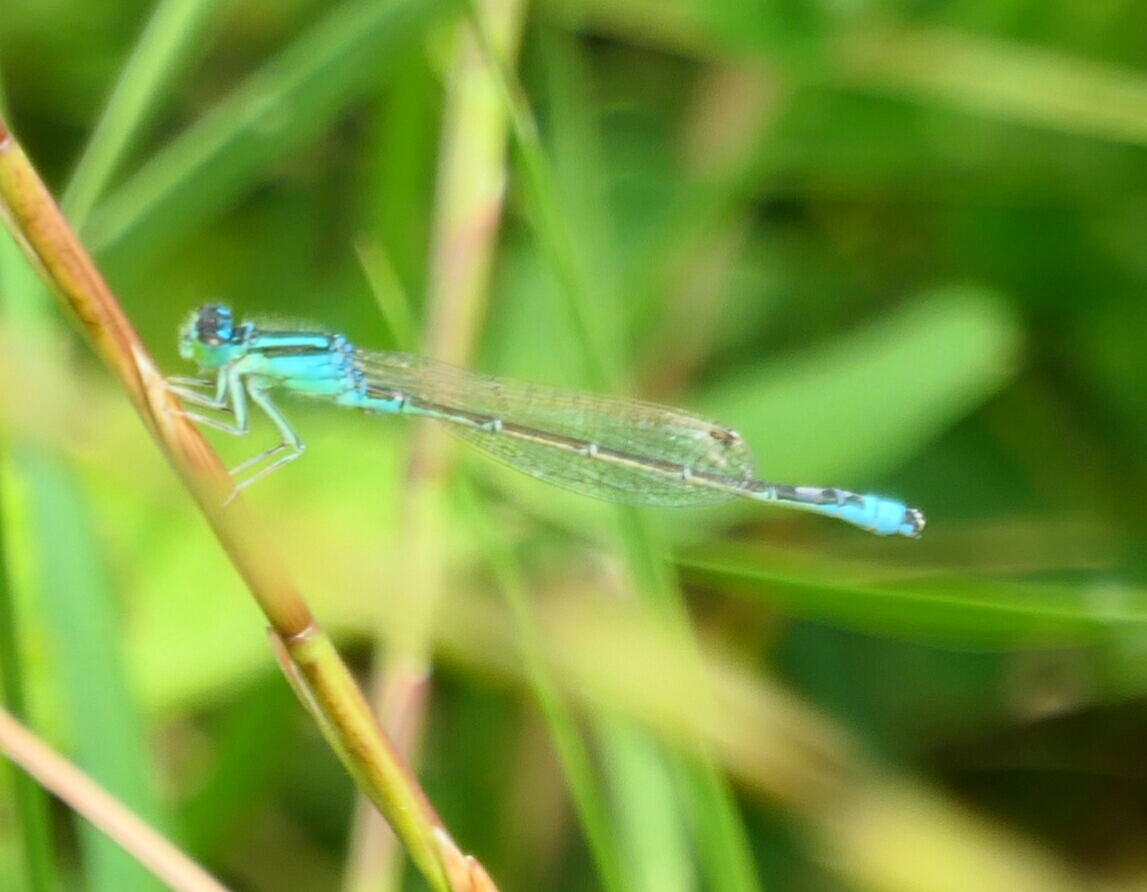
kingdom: Animalia
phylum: Arthropoda
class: Insecta
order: Odonata
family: Coenagrionidae
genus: Ischnura
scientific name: Ischnura pumilio
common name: Scarce blue-tailed damselfly
